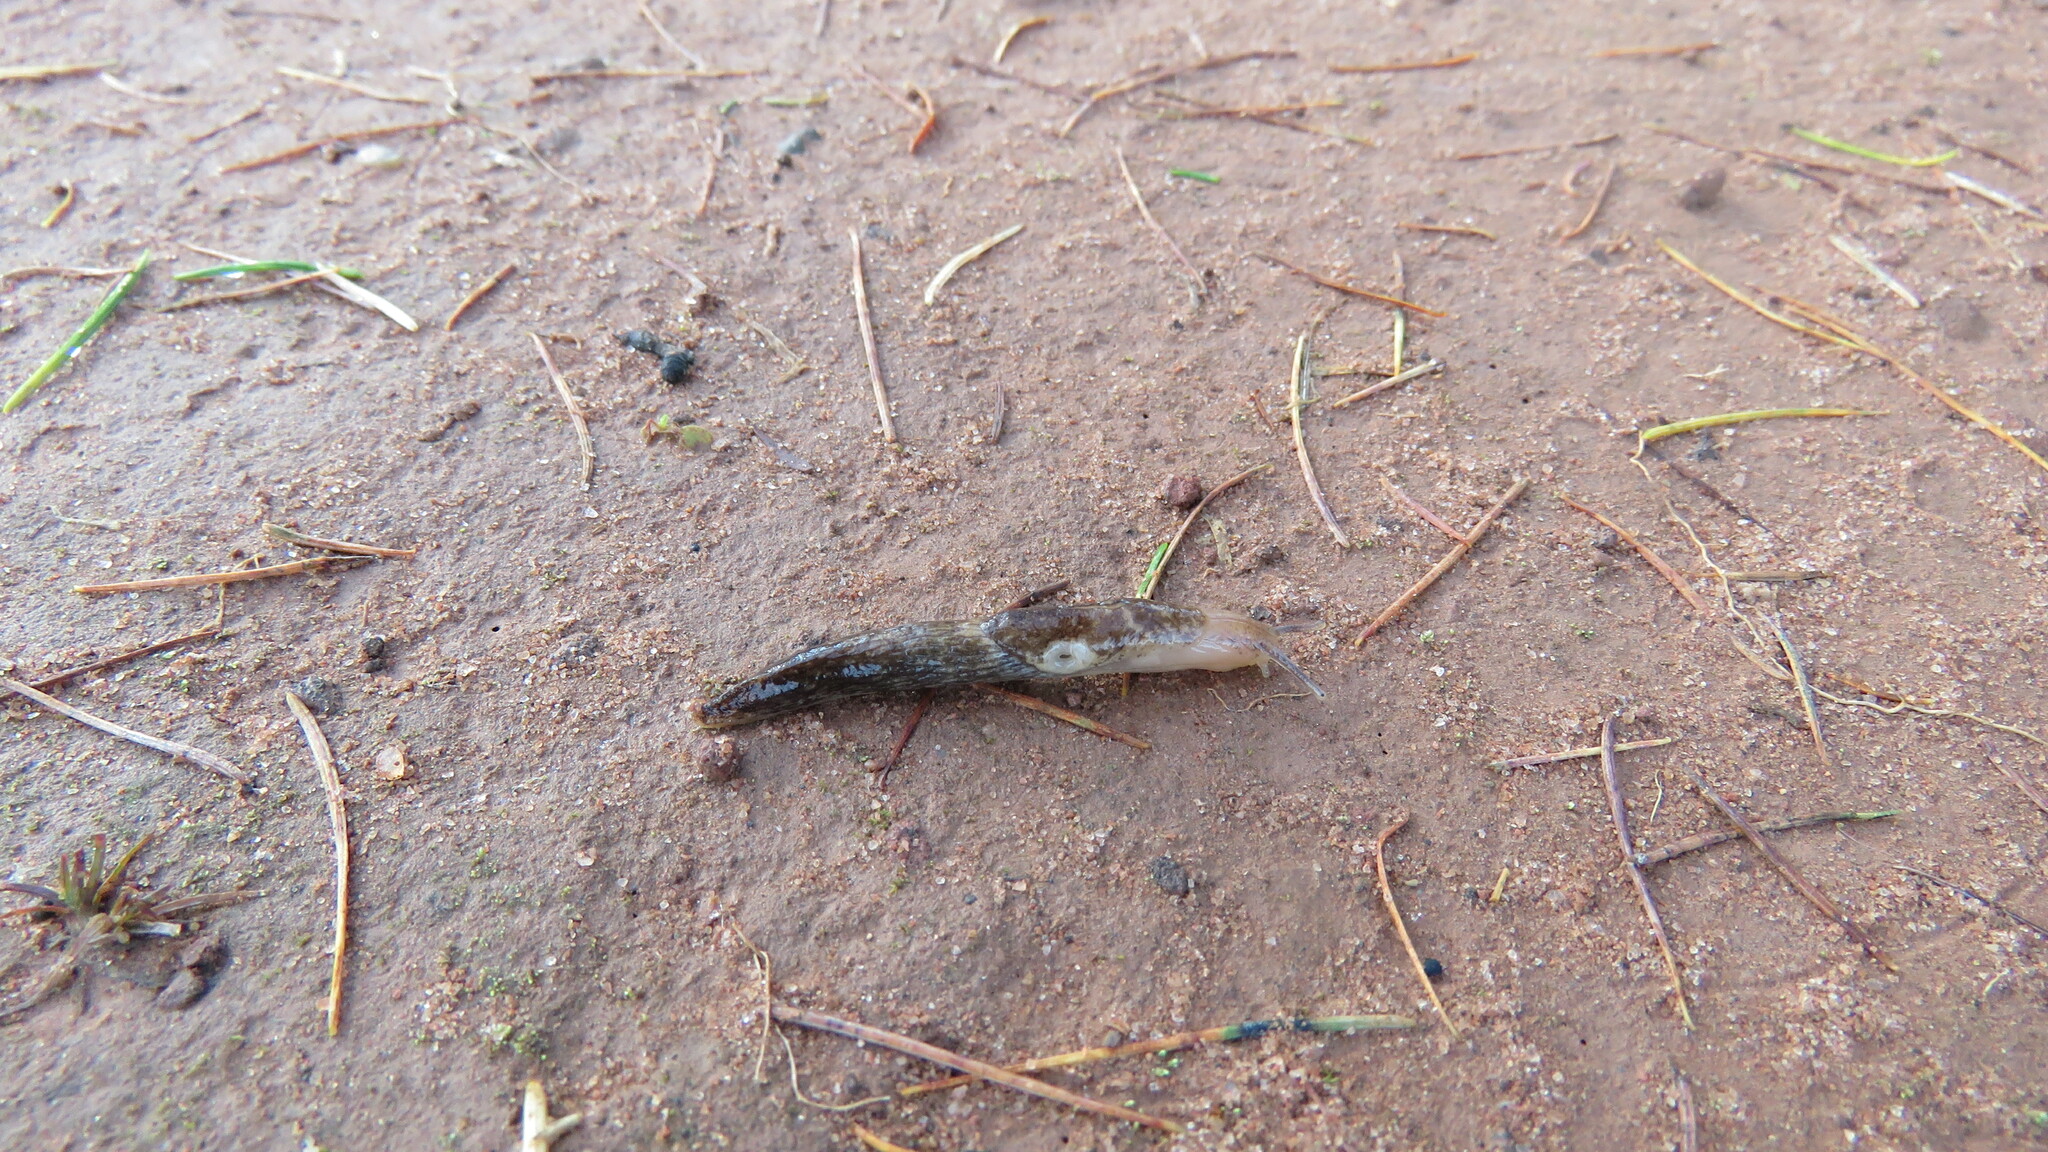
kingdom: Animalia
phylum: Mollusca
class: Gastropoda
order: Stylommatophora
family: Agriolimacidae
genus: Deroceras
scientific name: Deroceras reticulatum
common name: Gray field slug
